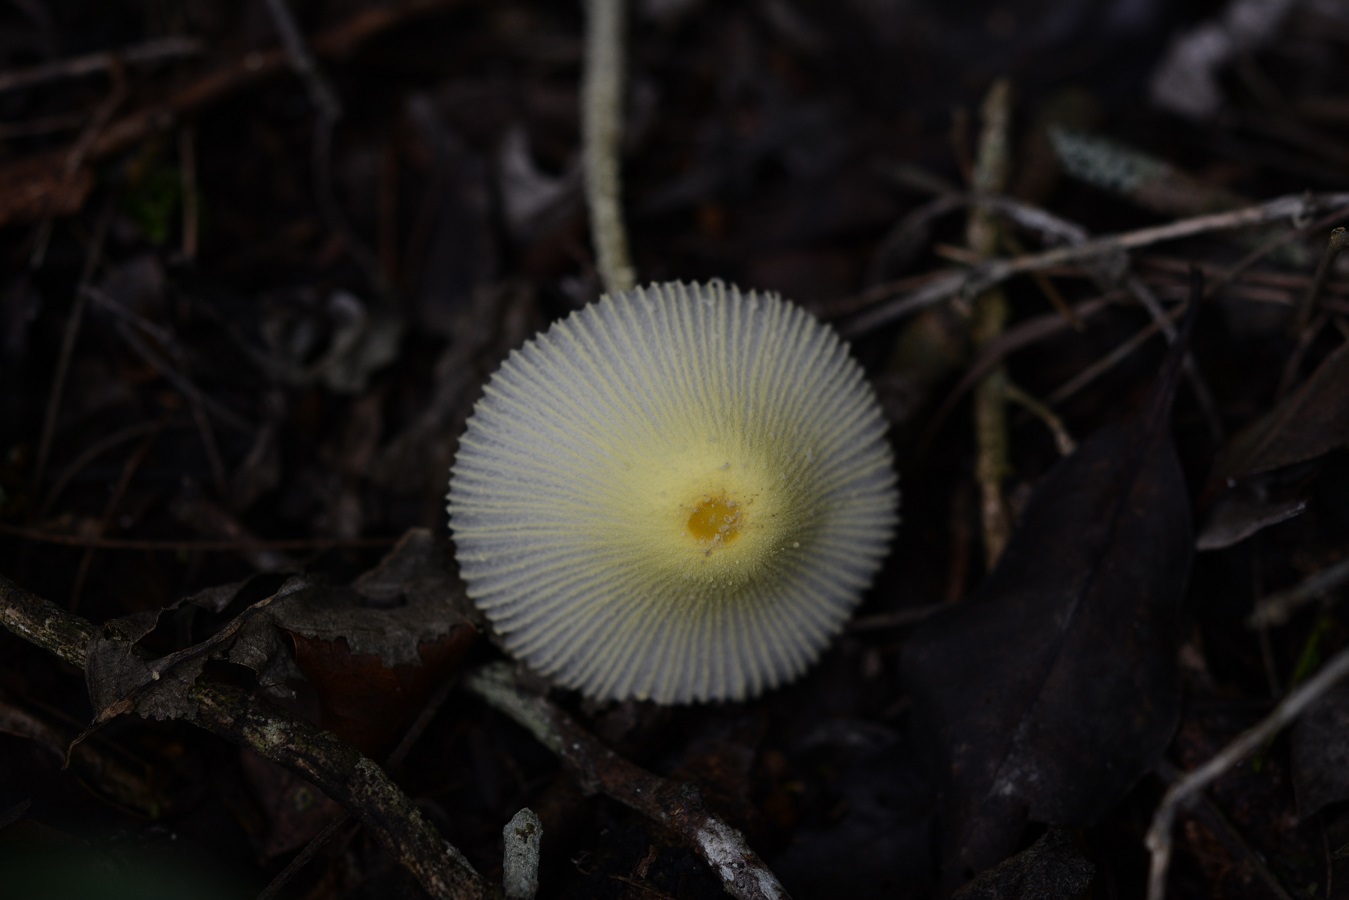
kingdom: Fungi
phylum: Basidiomycota
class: Agaricomycetes
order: Agaricales
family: Agaricaceae
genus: Leucocoprinus
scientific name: Leucocoprinus fragilissimus
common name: Fragile dapperling
